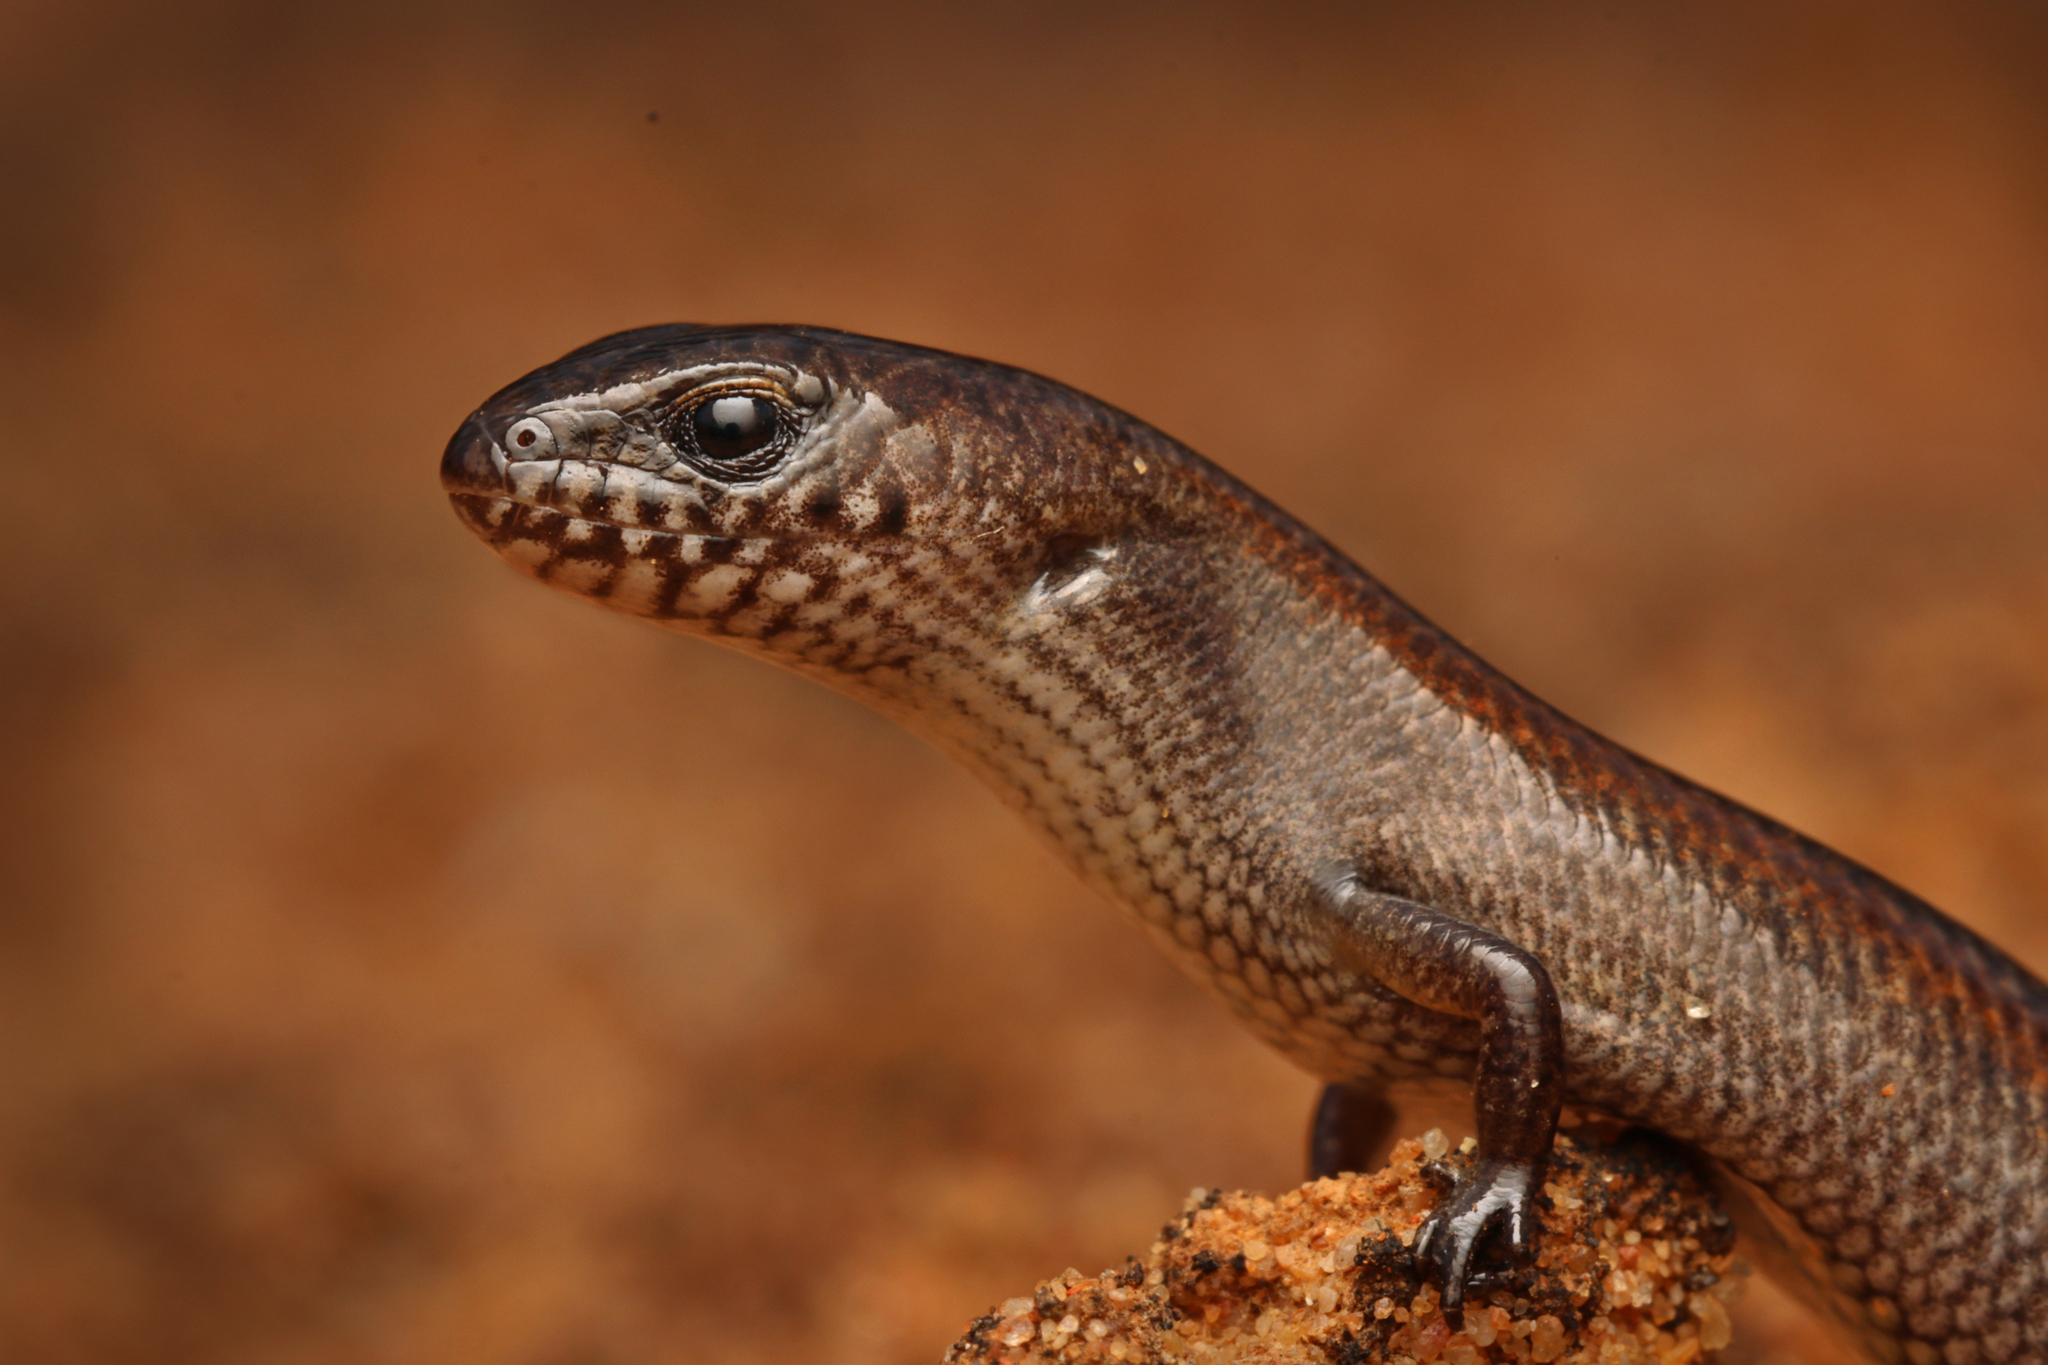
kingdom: Animalia
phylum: Chordata
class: Squamata
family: Scincidae
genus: Hemiergis
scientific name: Hemiergis millewae
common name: Triodia earless skink
